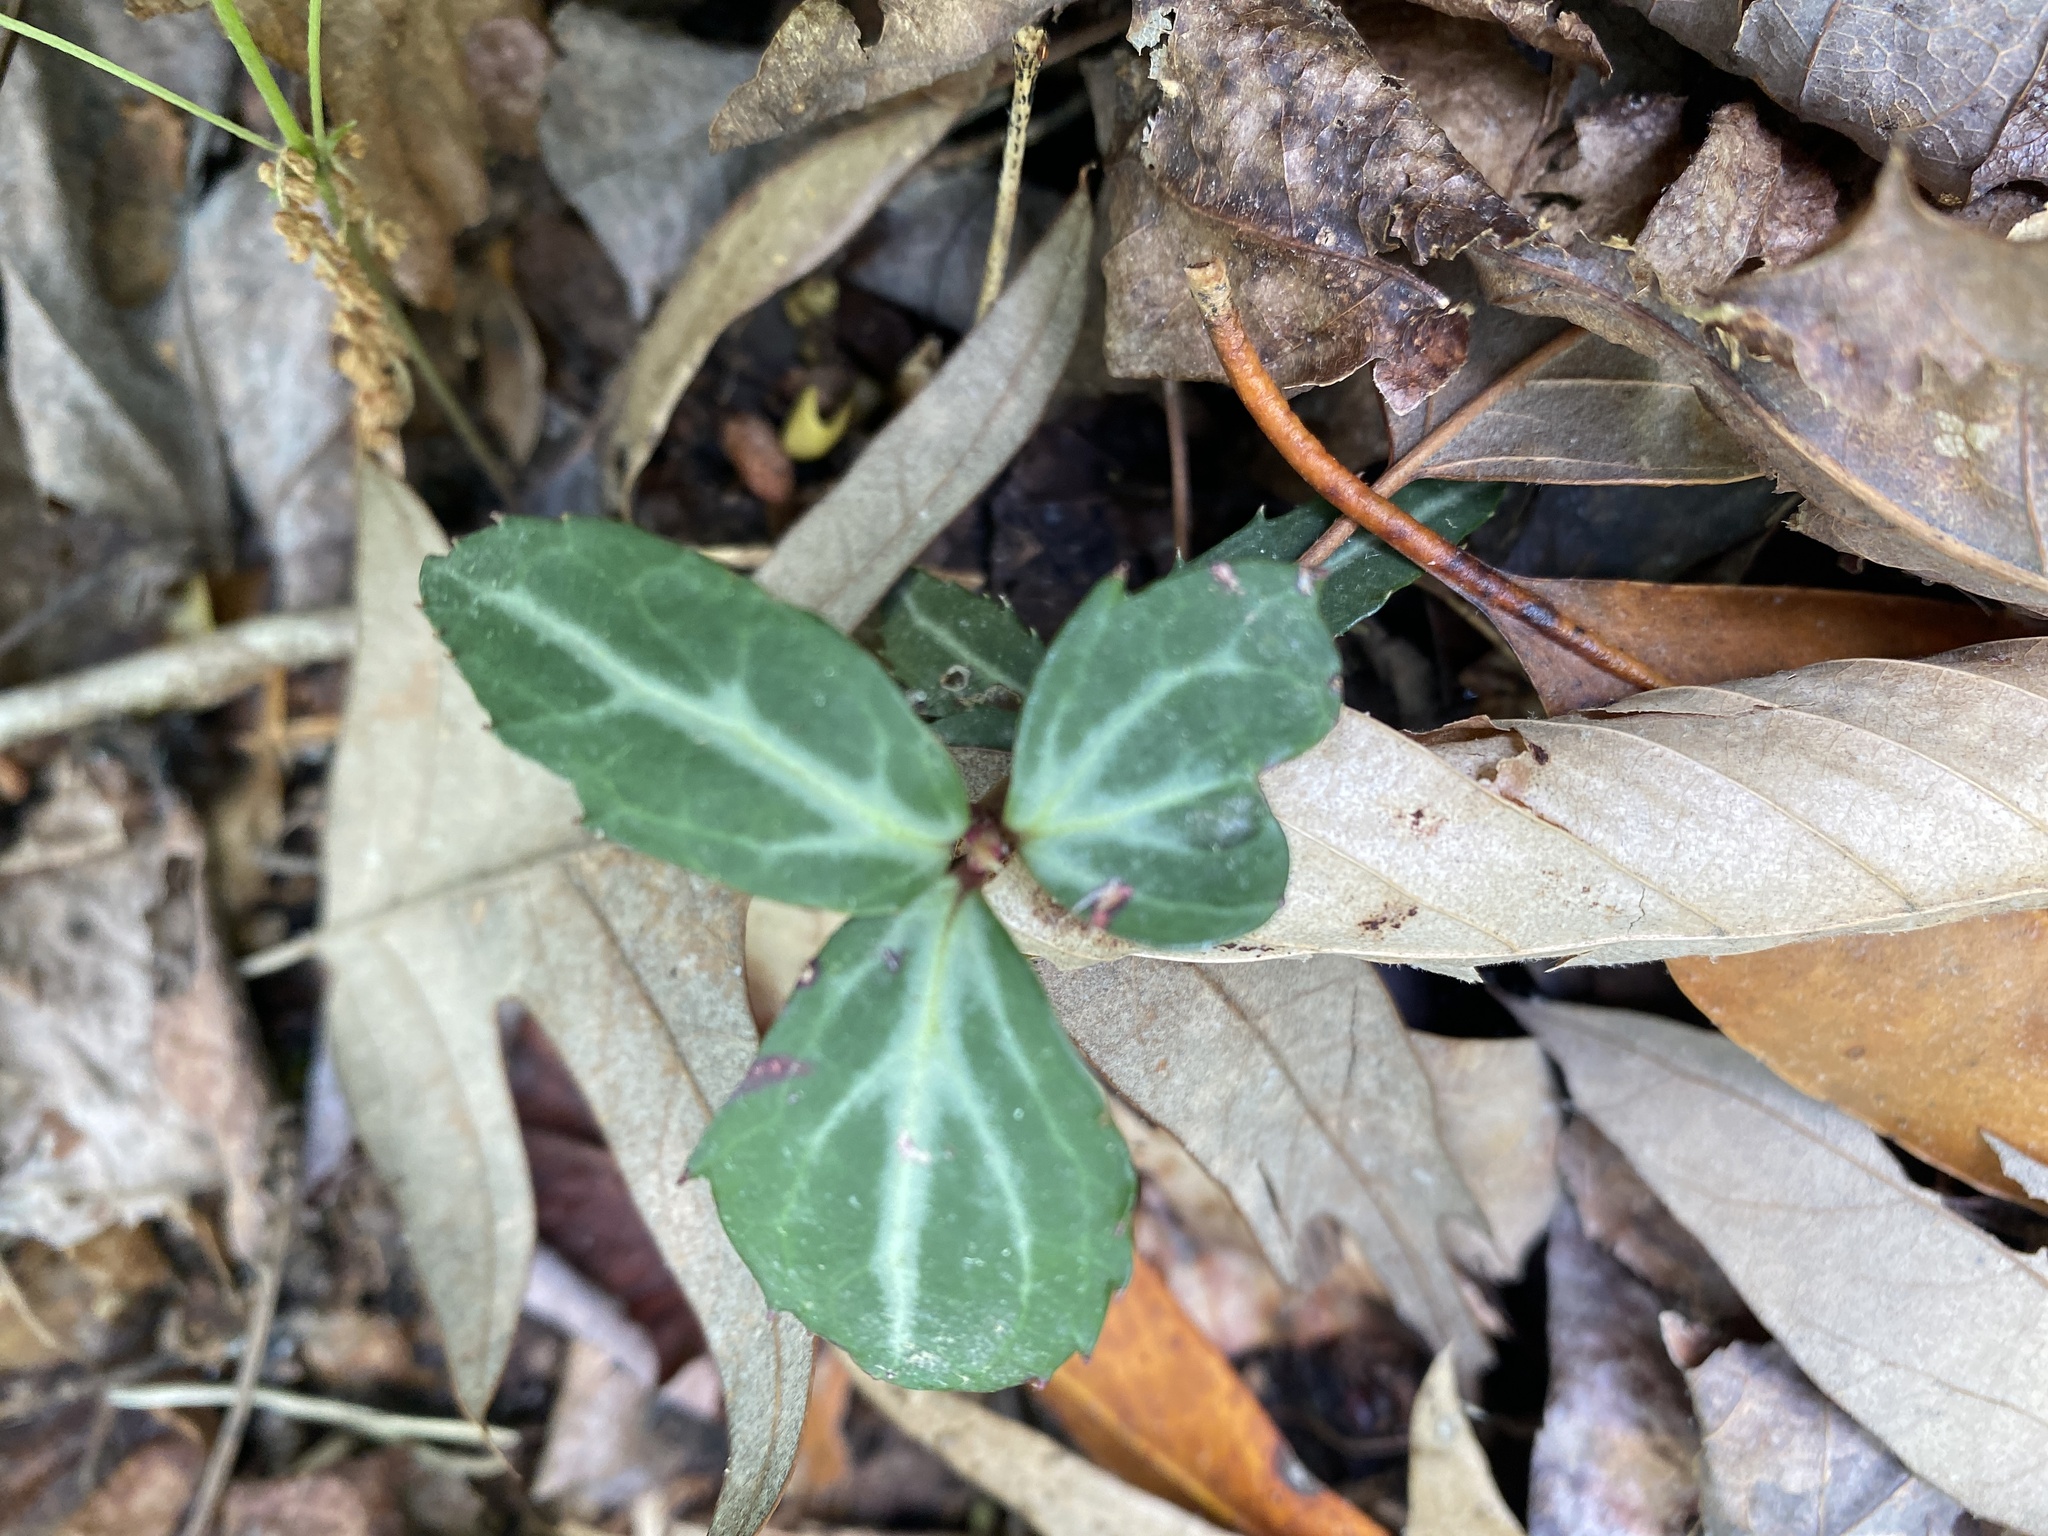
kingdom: Plantae
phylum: Tracheophyta
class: Magnoliopsida
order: Ericales
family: Ericaceae
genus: Chimaphila
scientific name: Chimaphila maculata
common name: Spotted pipsissewa
